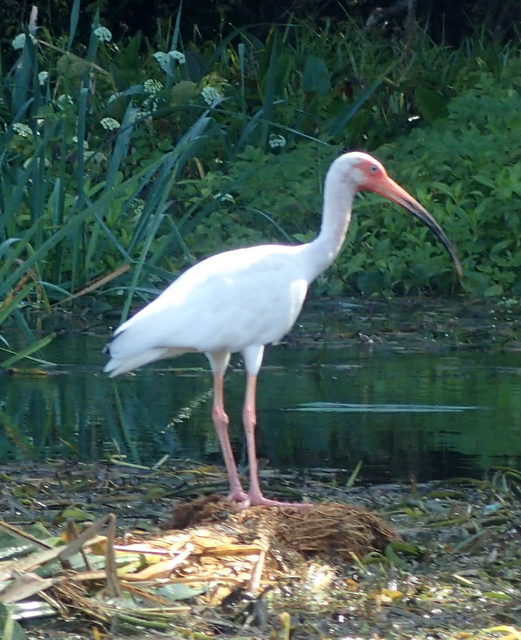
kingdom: Animalia
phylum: Chordata
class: Aves
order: Pelecaniformes
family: Threskiornithidae
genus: Eudocimus
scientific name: Eudocimus albus
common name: White ibis
